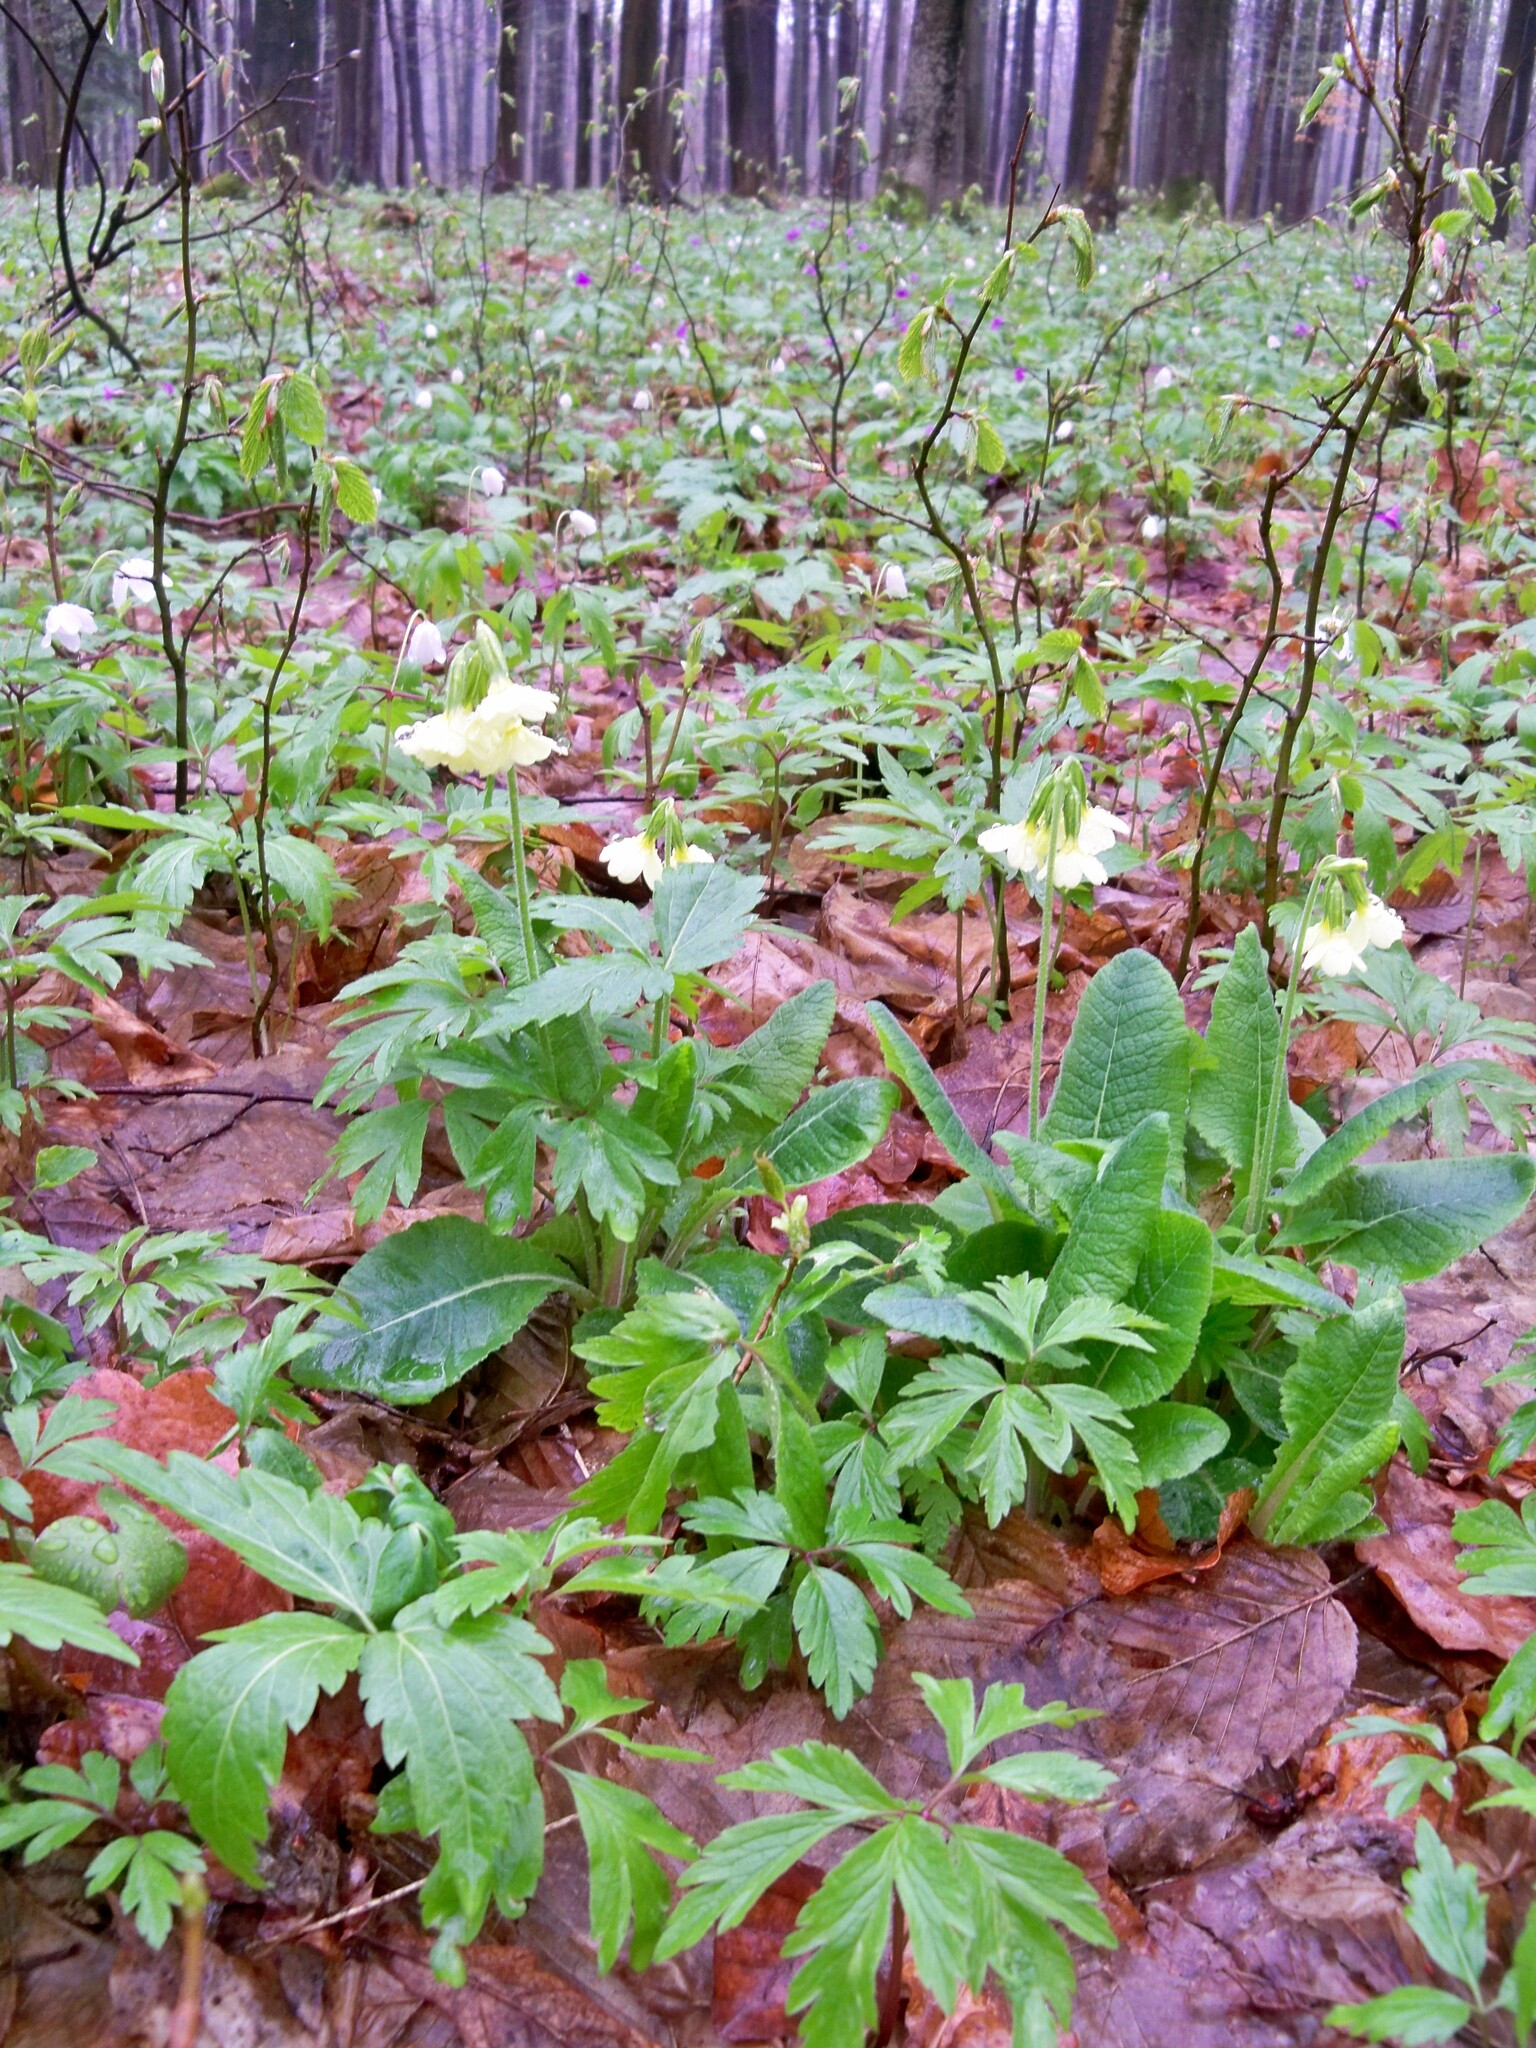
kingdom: Plantae
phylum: Tracheophyta
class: Magnoliopsida
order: Ericales
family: Primulaceae
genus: Primula
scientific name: Primula elatior
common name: Oxlip
